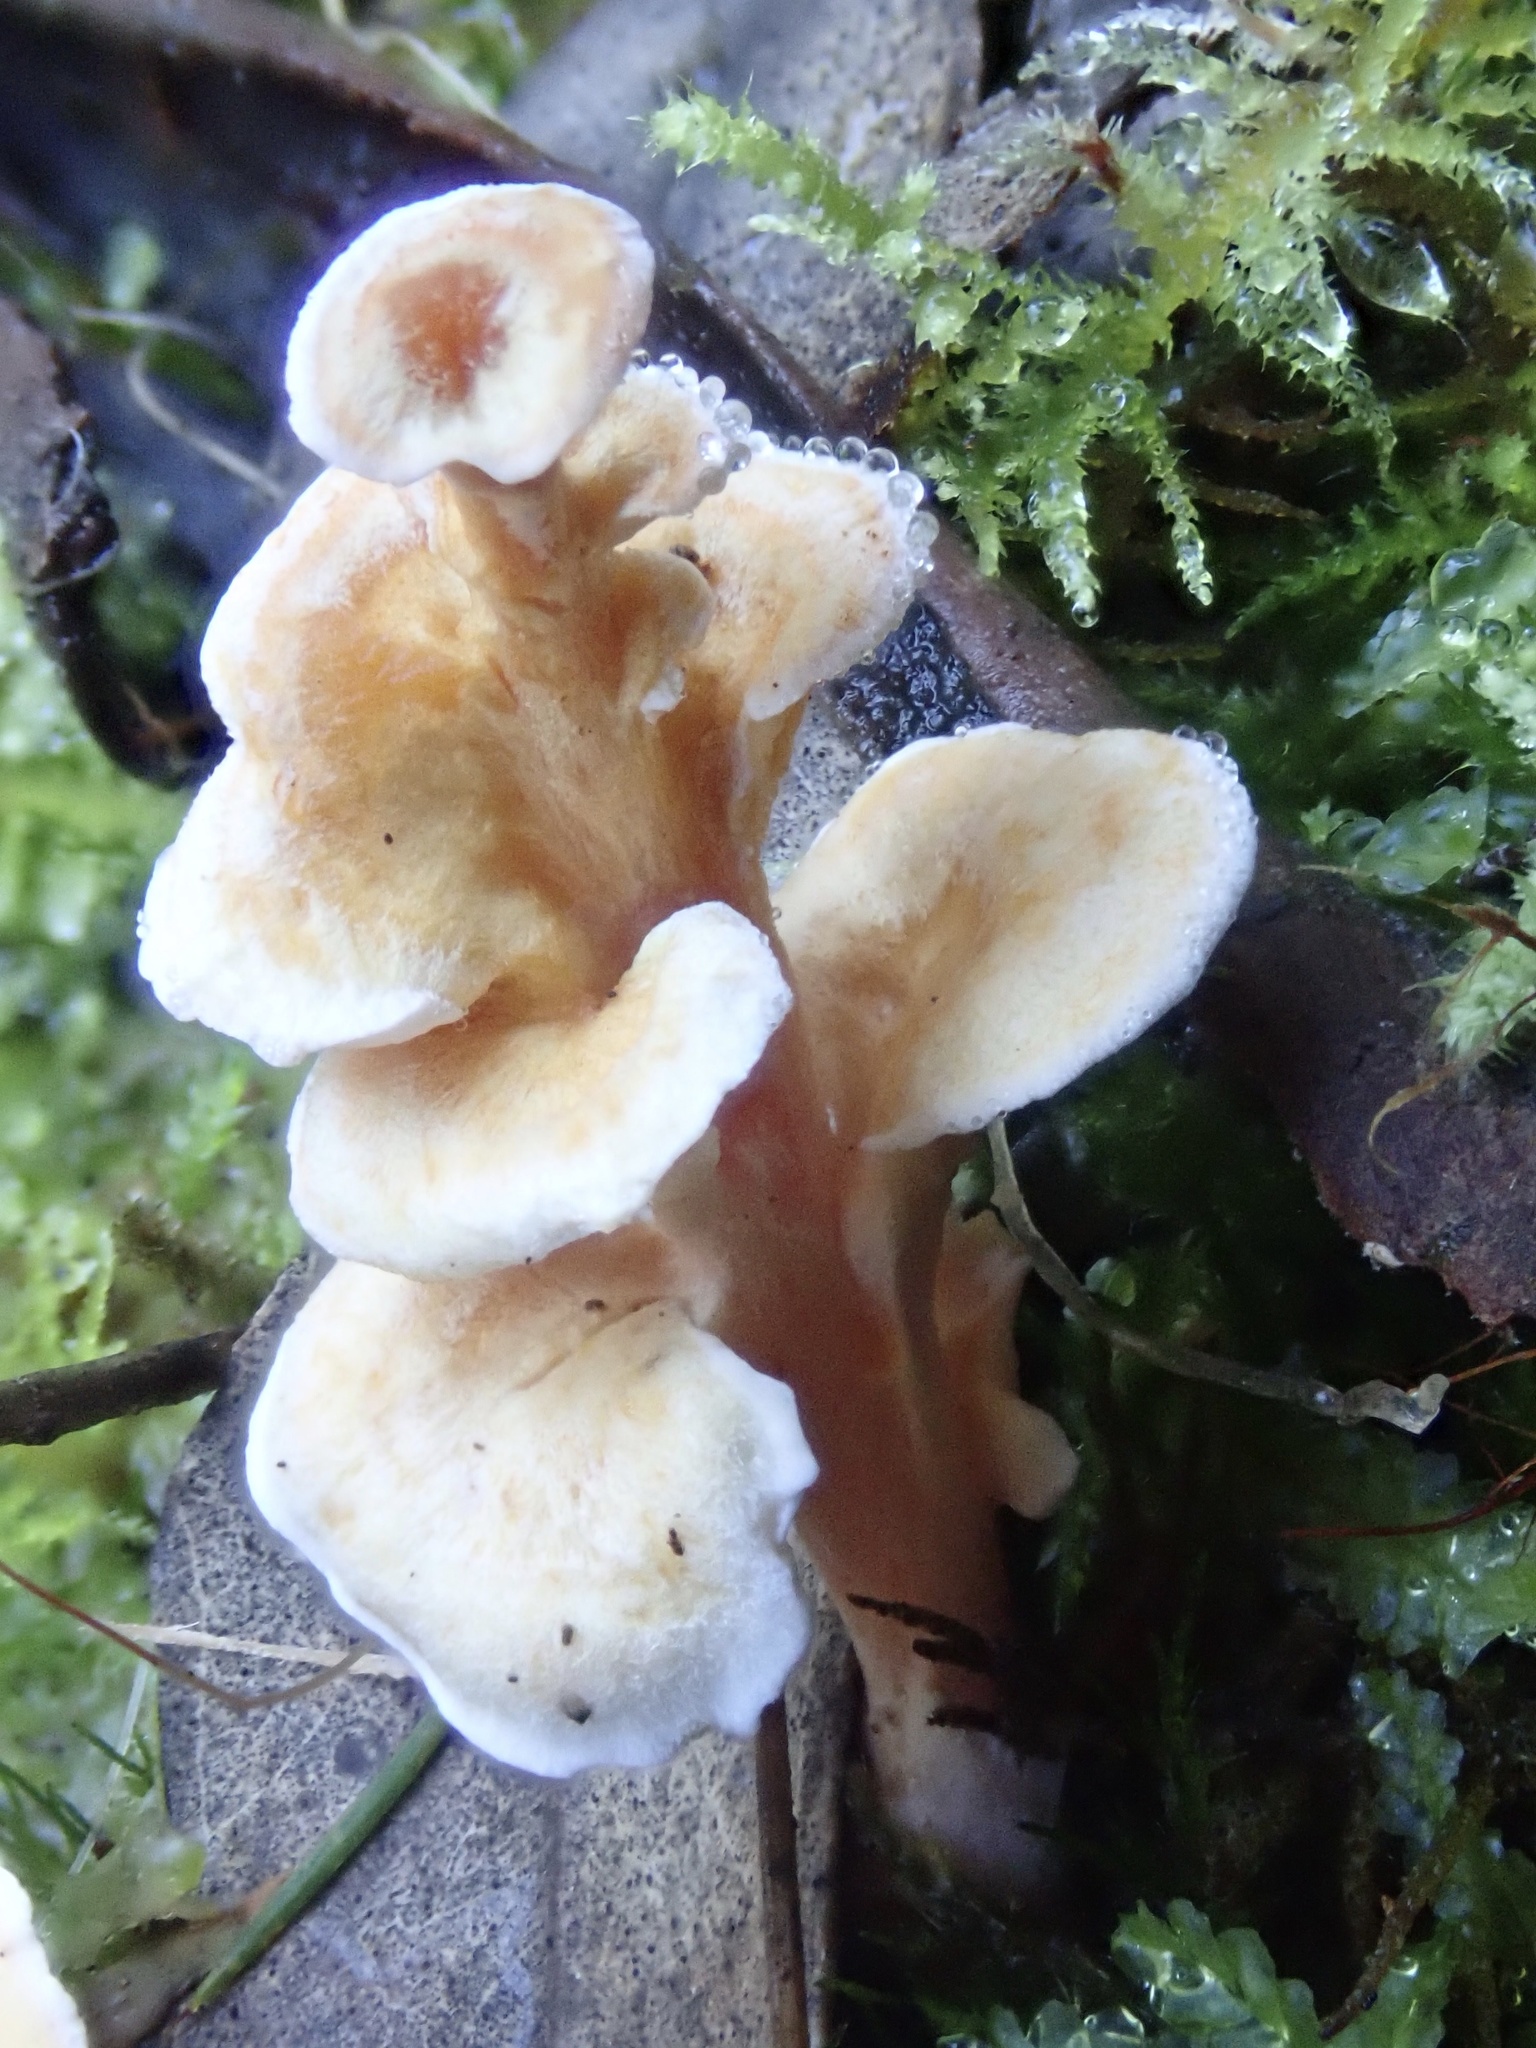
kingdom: Fungi
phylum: Basidiomycota
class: Agaricomycetes
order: Amylocorticiales
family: Amylocorticiaceae
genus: Podoserpula
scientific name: Podoserpula pusio
